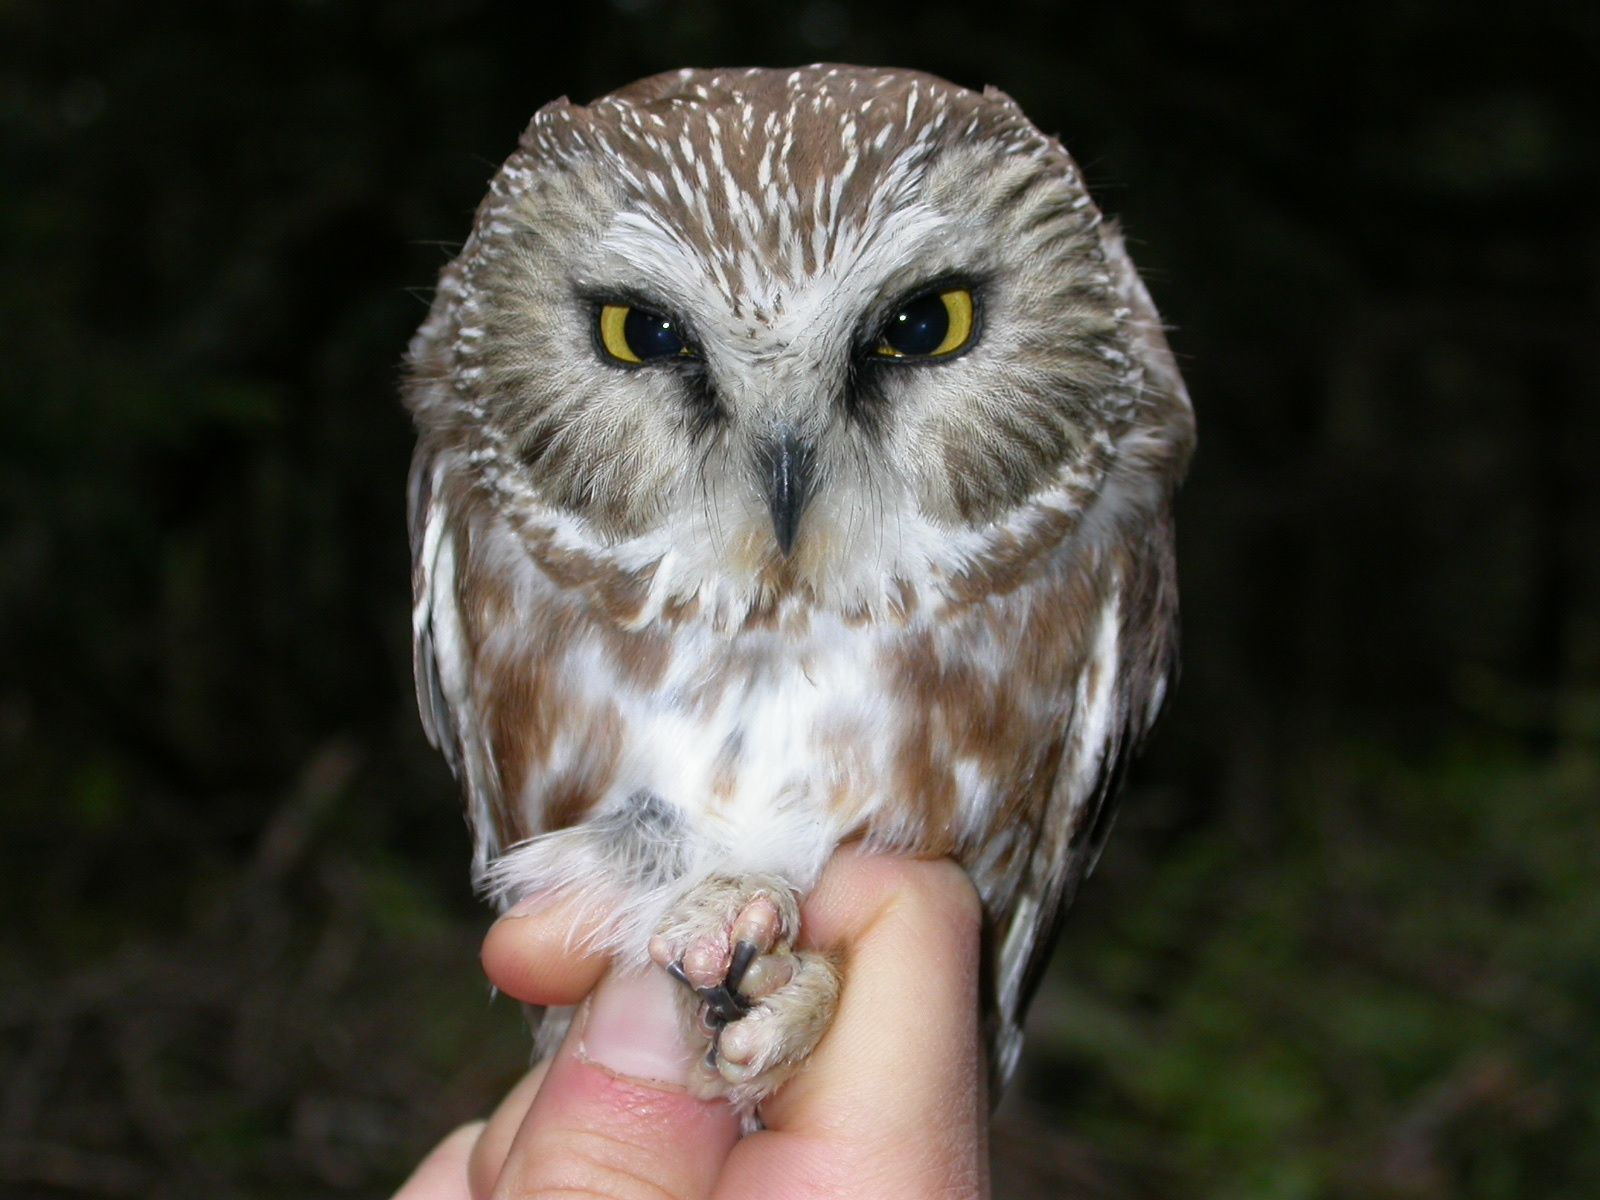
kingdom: Animalia
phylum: Chordata
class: Aves
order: Strigiformes
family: Strigidae
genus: Aegolius
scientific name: Aegolius acadicus
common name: Northern saw-whet owl
